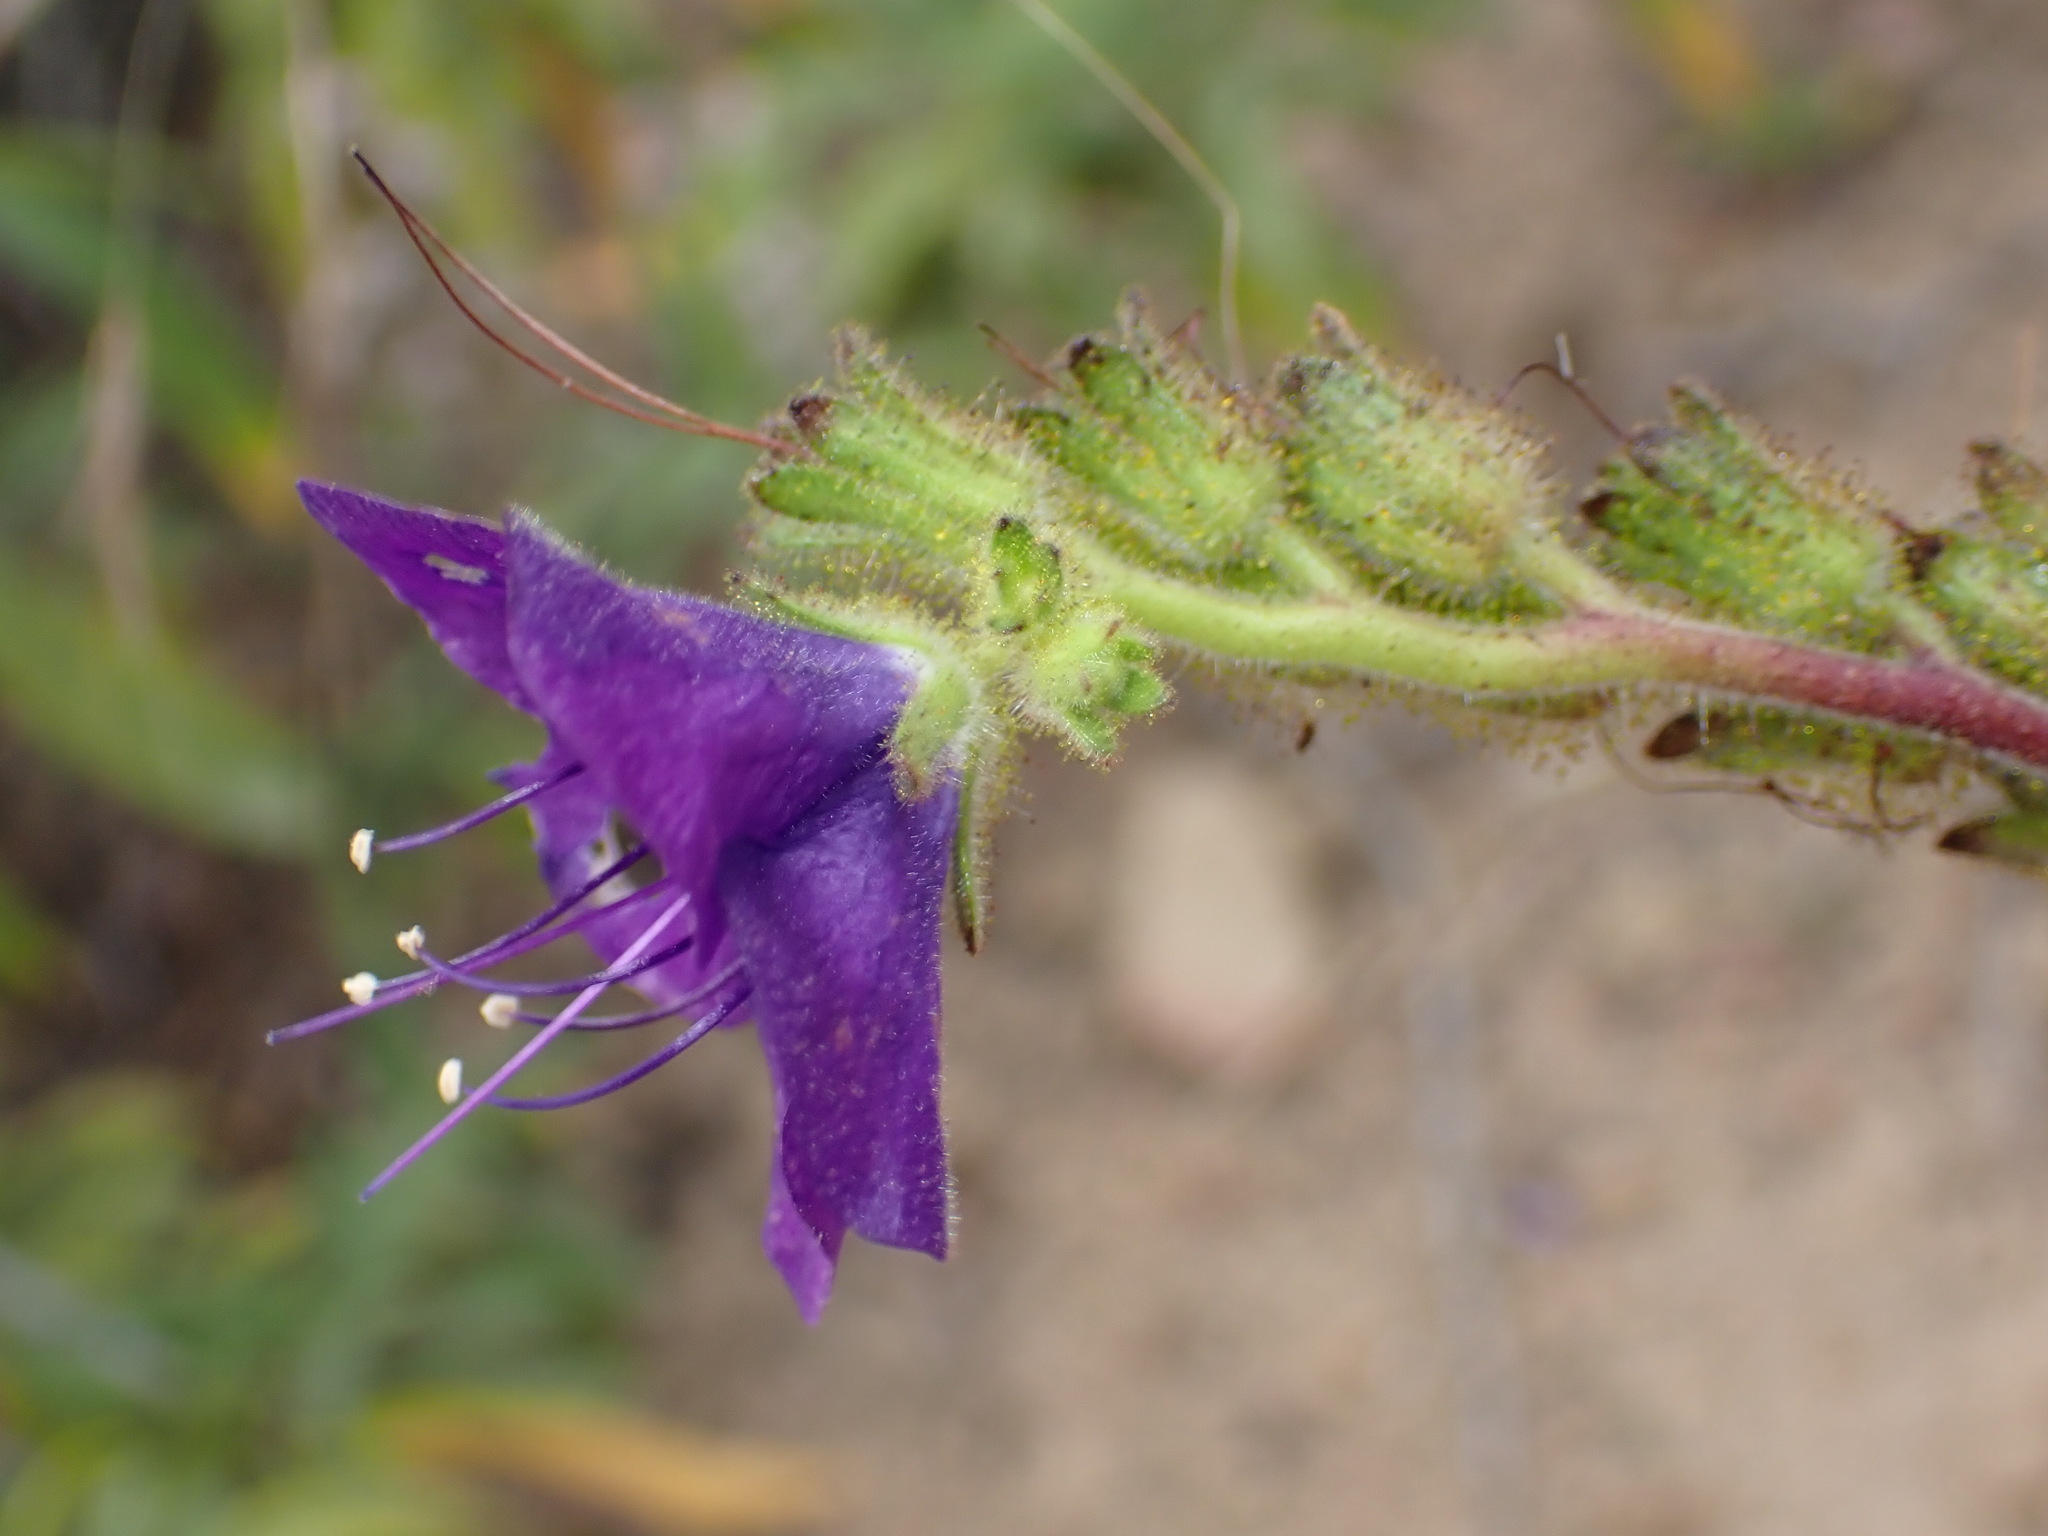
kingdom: Plantae
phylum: Tracheophyta
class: Magnoliopsida
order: Boraginales
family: Hydrophyllaceae
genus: Phacelia
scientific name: Phacelia grandiflora
